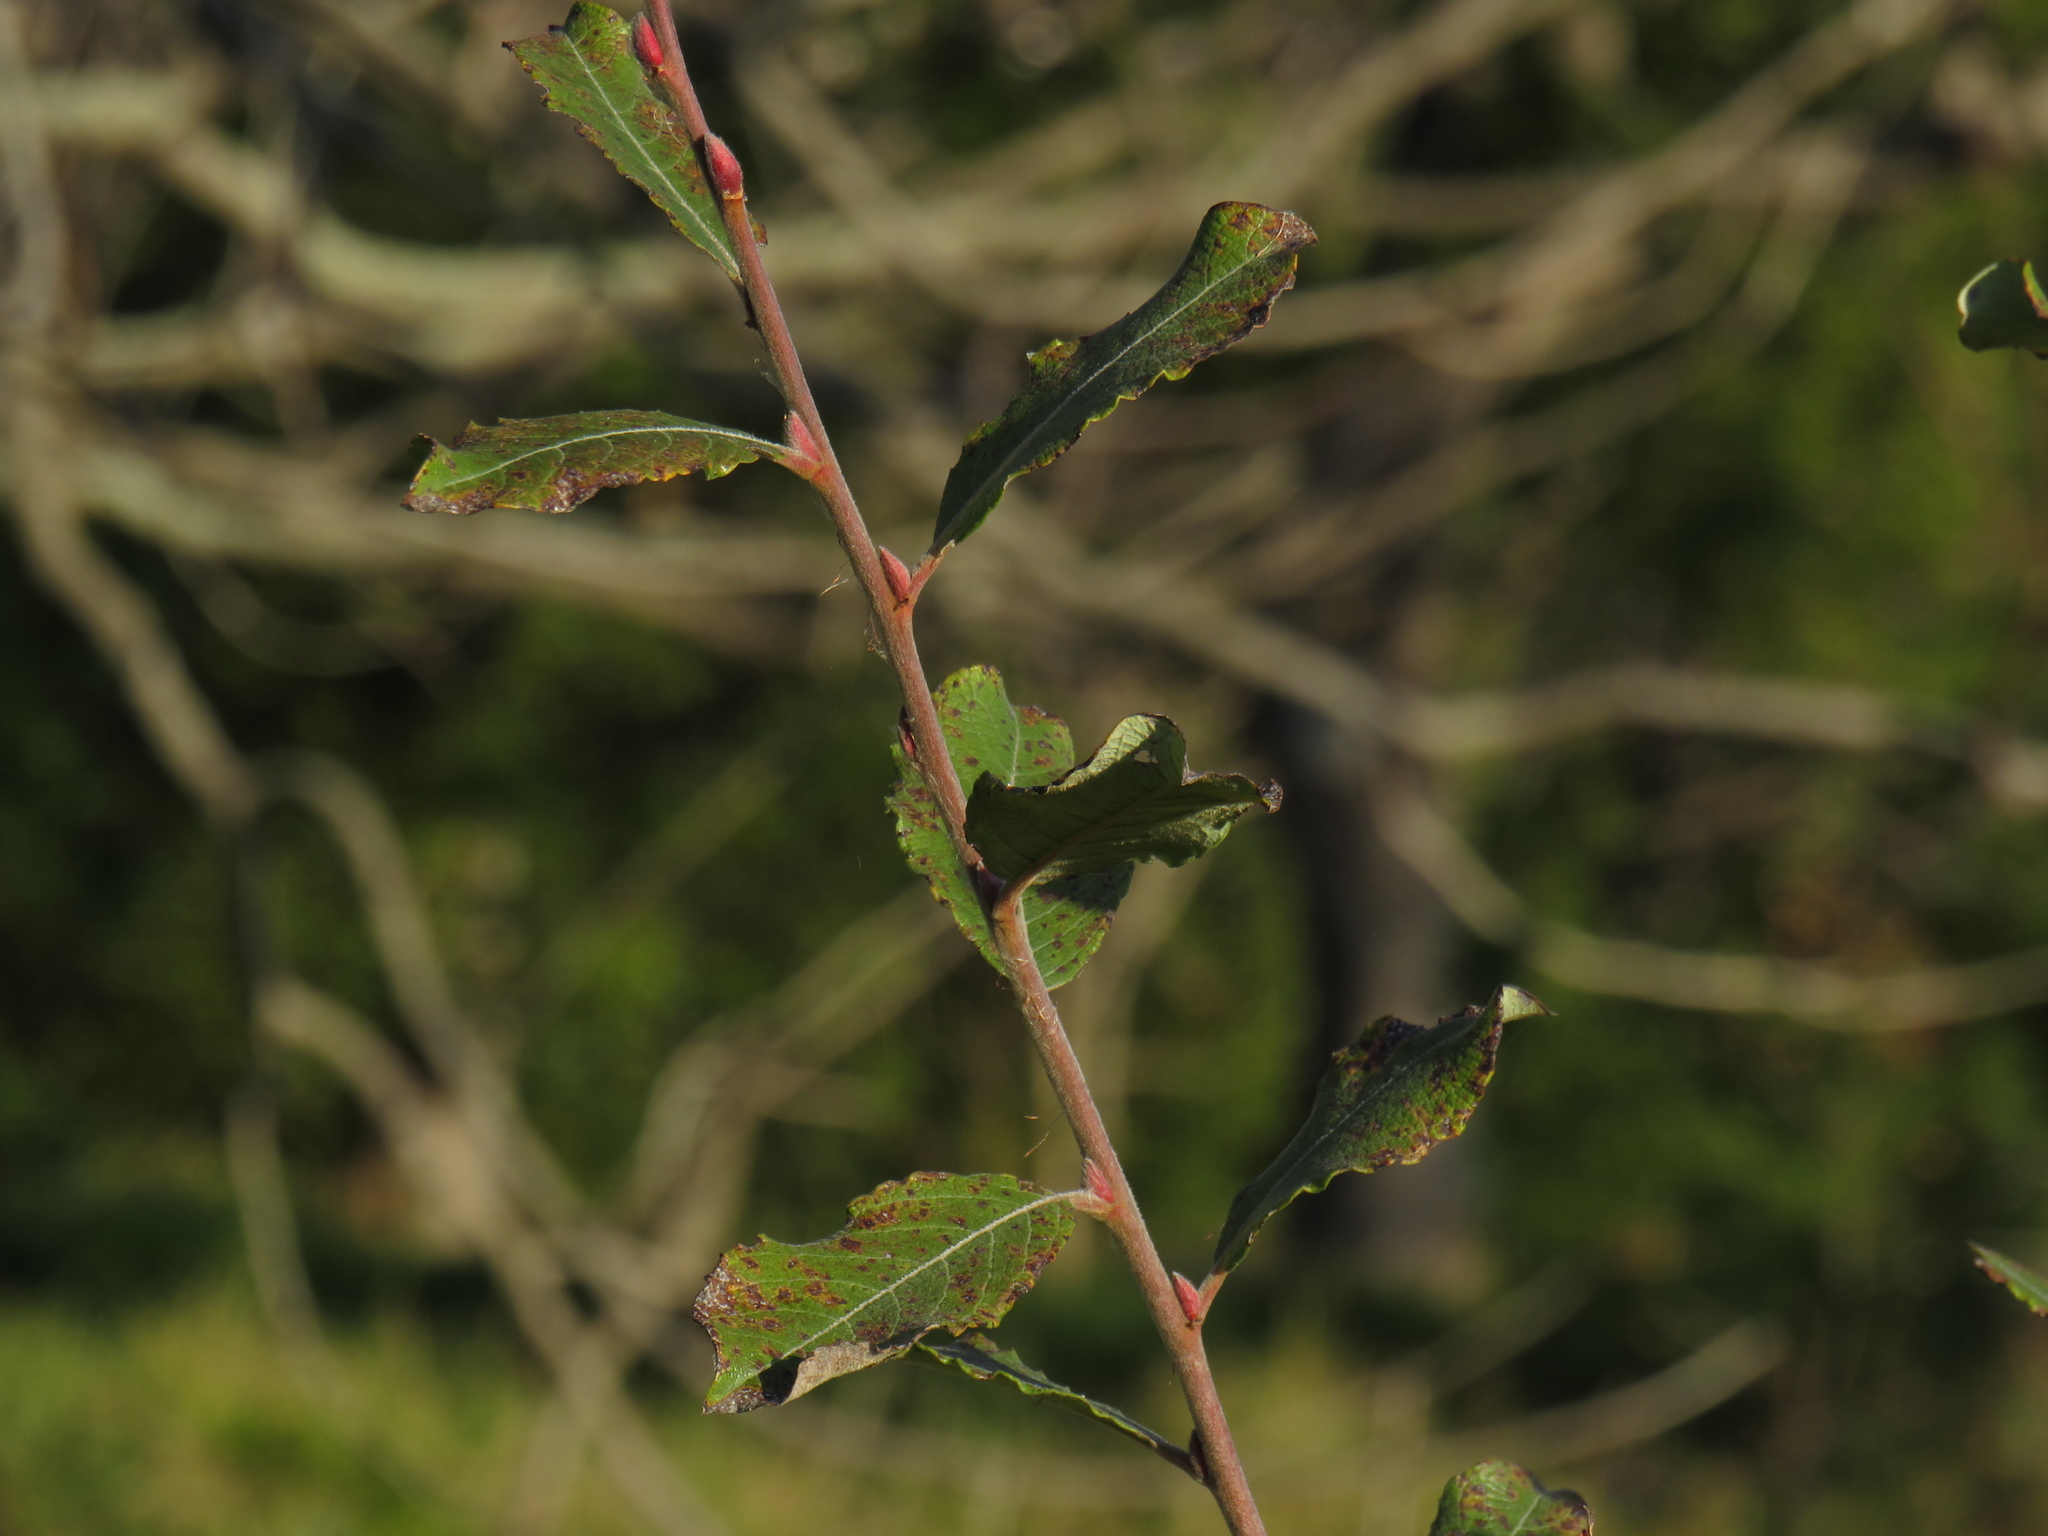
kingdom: Plantae
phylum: Tracheophyta
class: Magnoliopsida
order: Malpighiales
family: Salicaceae
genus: Salix
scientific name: Salix caprea
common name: Goat willow
